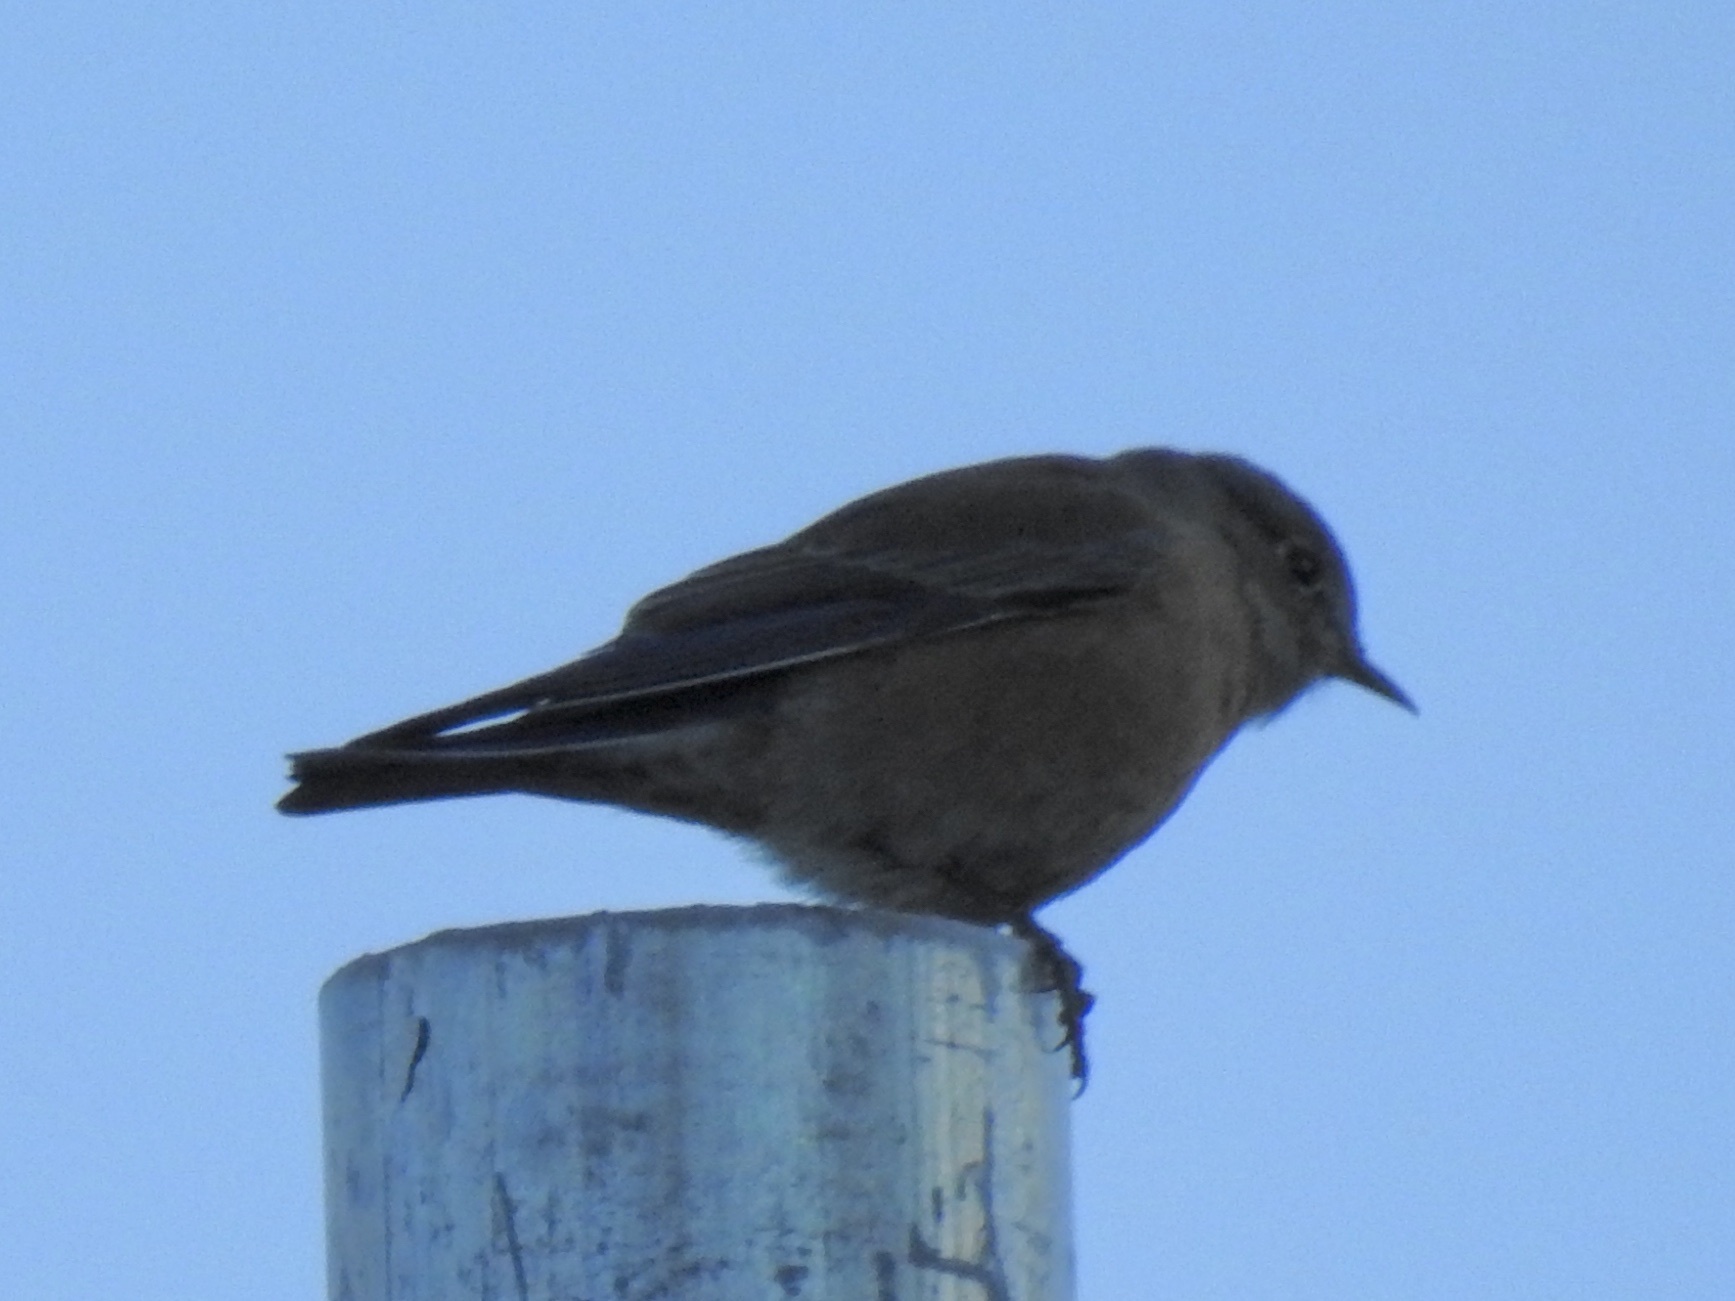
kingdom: Animalia
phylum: Chordata
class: Aves
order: Passeriformes
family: Turdidae
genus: Sialia
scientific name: Sialia mexicana
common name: Western bluebird
